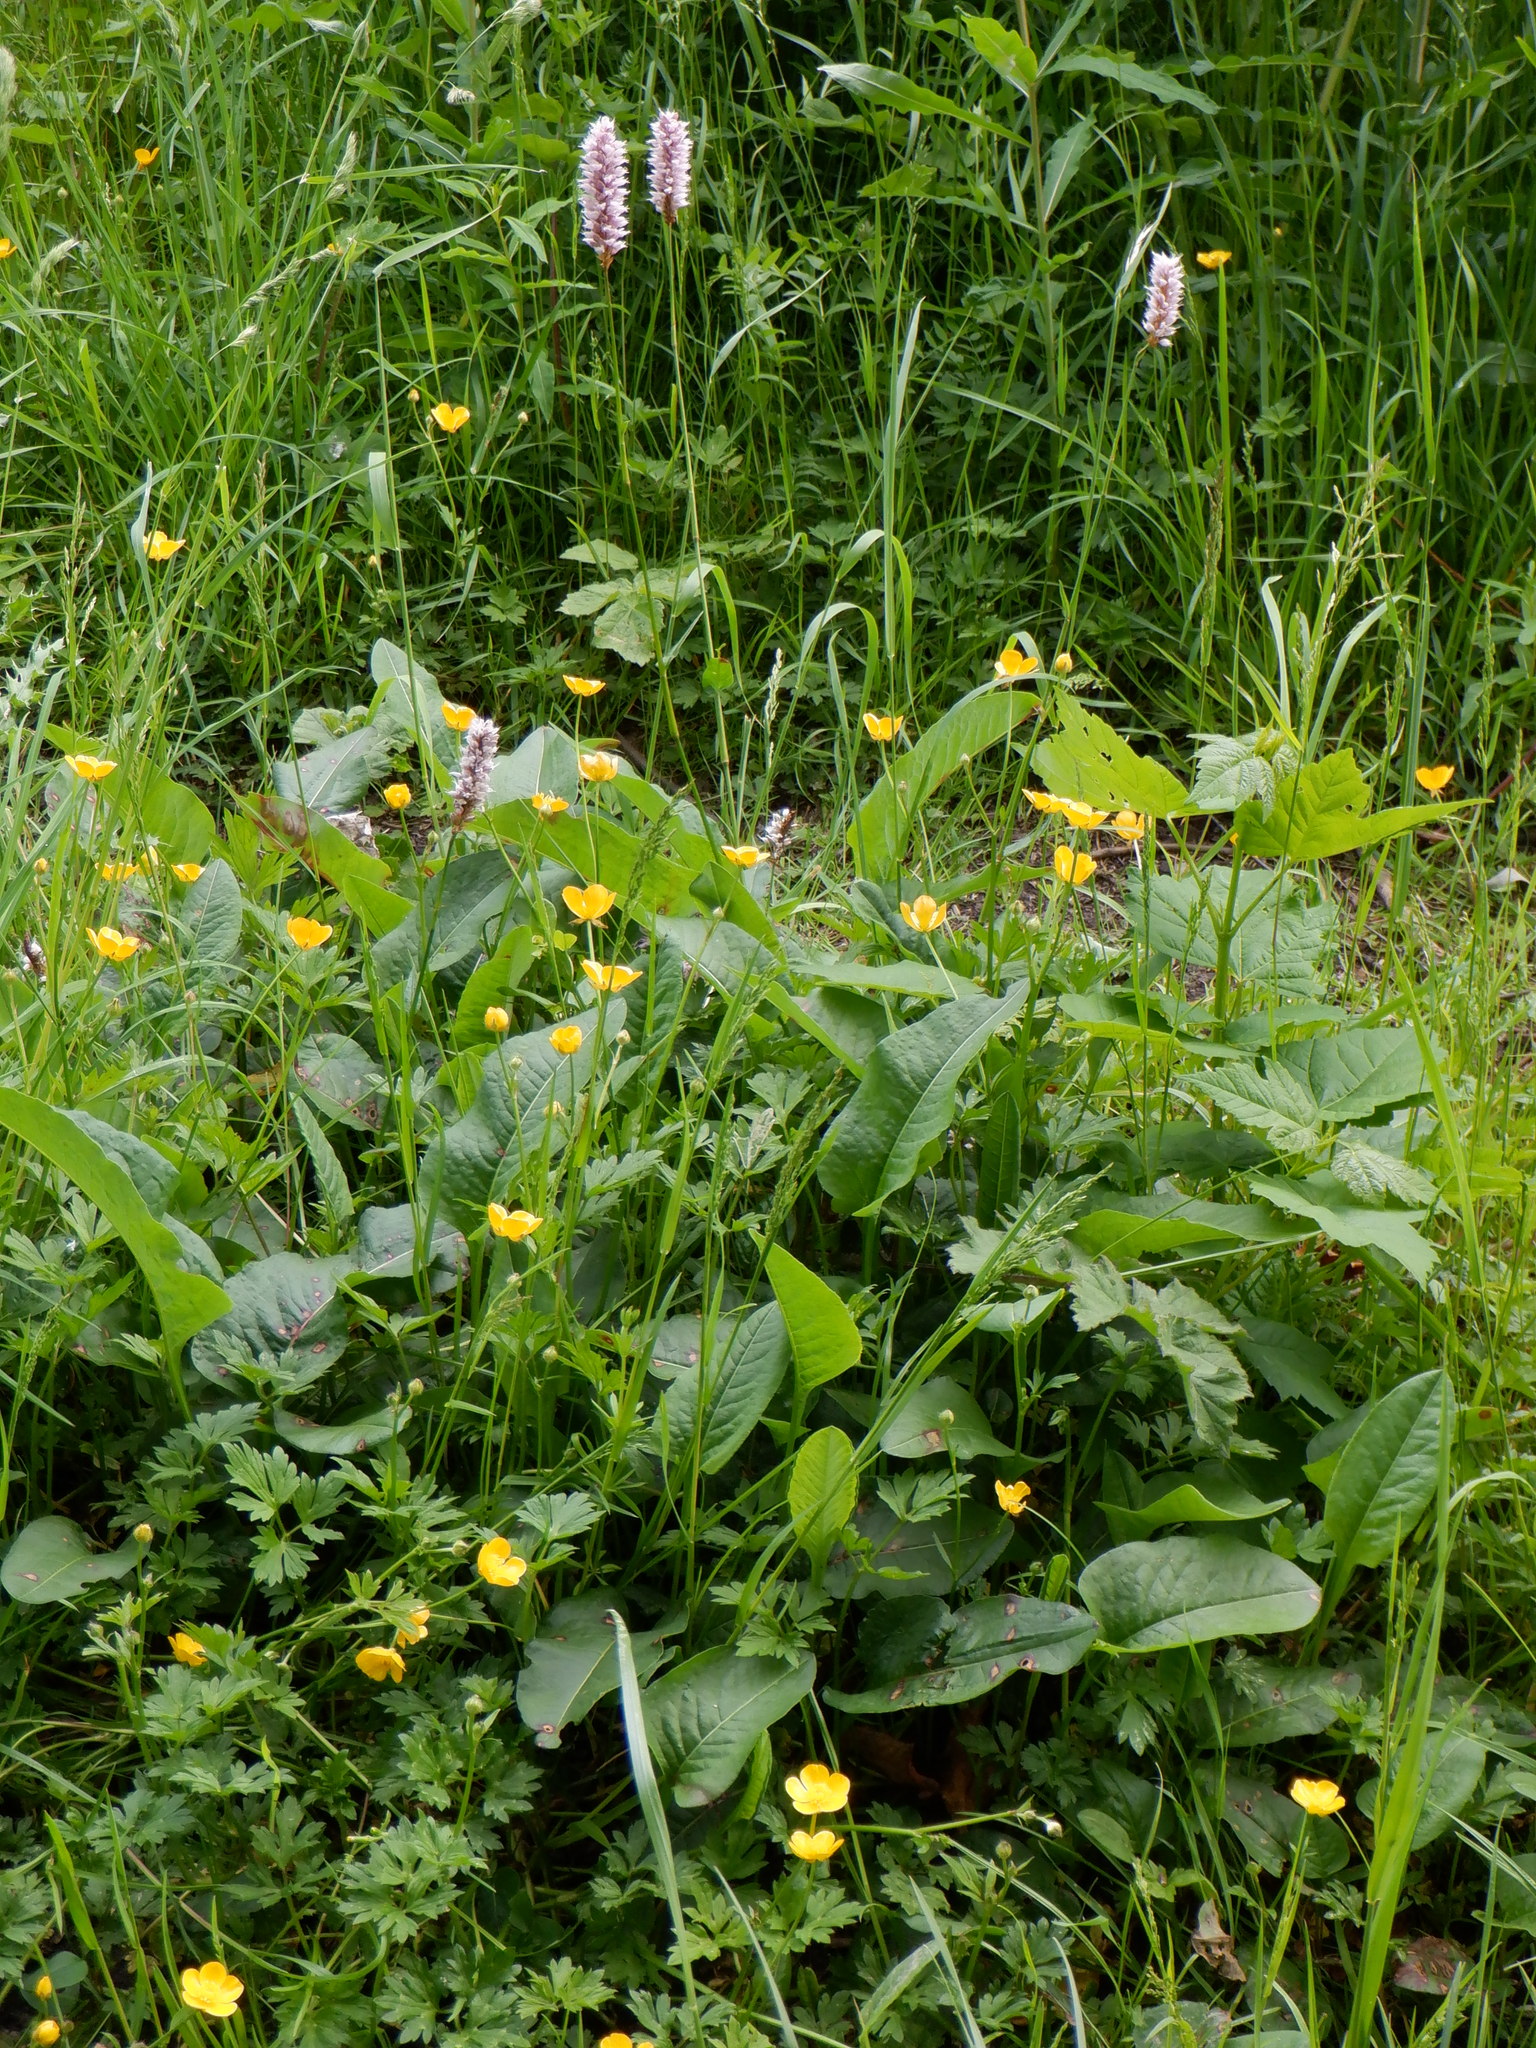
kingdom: Plantae
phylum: Tracheophyta
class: Magnoliopsida
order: Caryophyllales
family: Polygonaceae
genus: Bistorta
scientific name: Bistorta officinalis
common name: Common bistort
